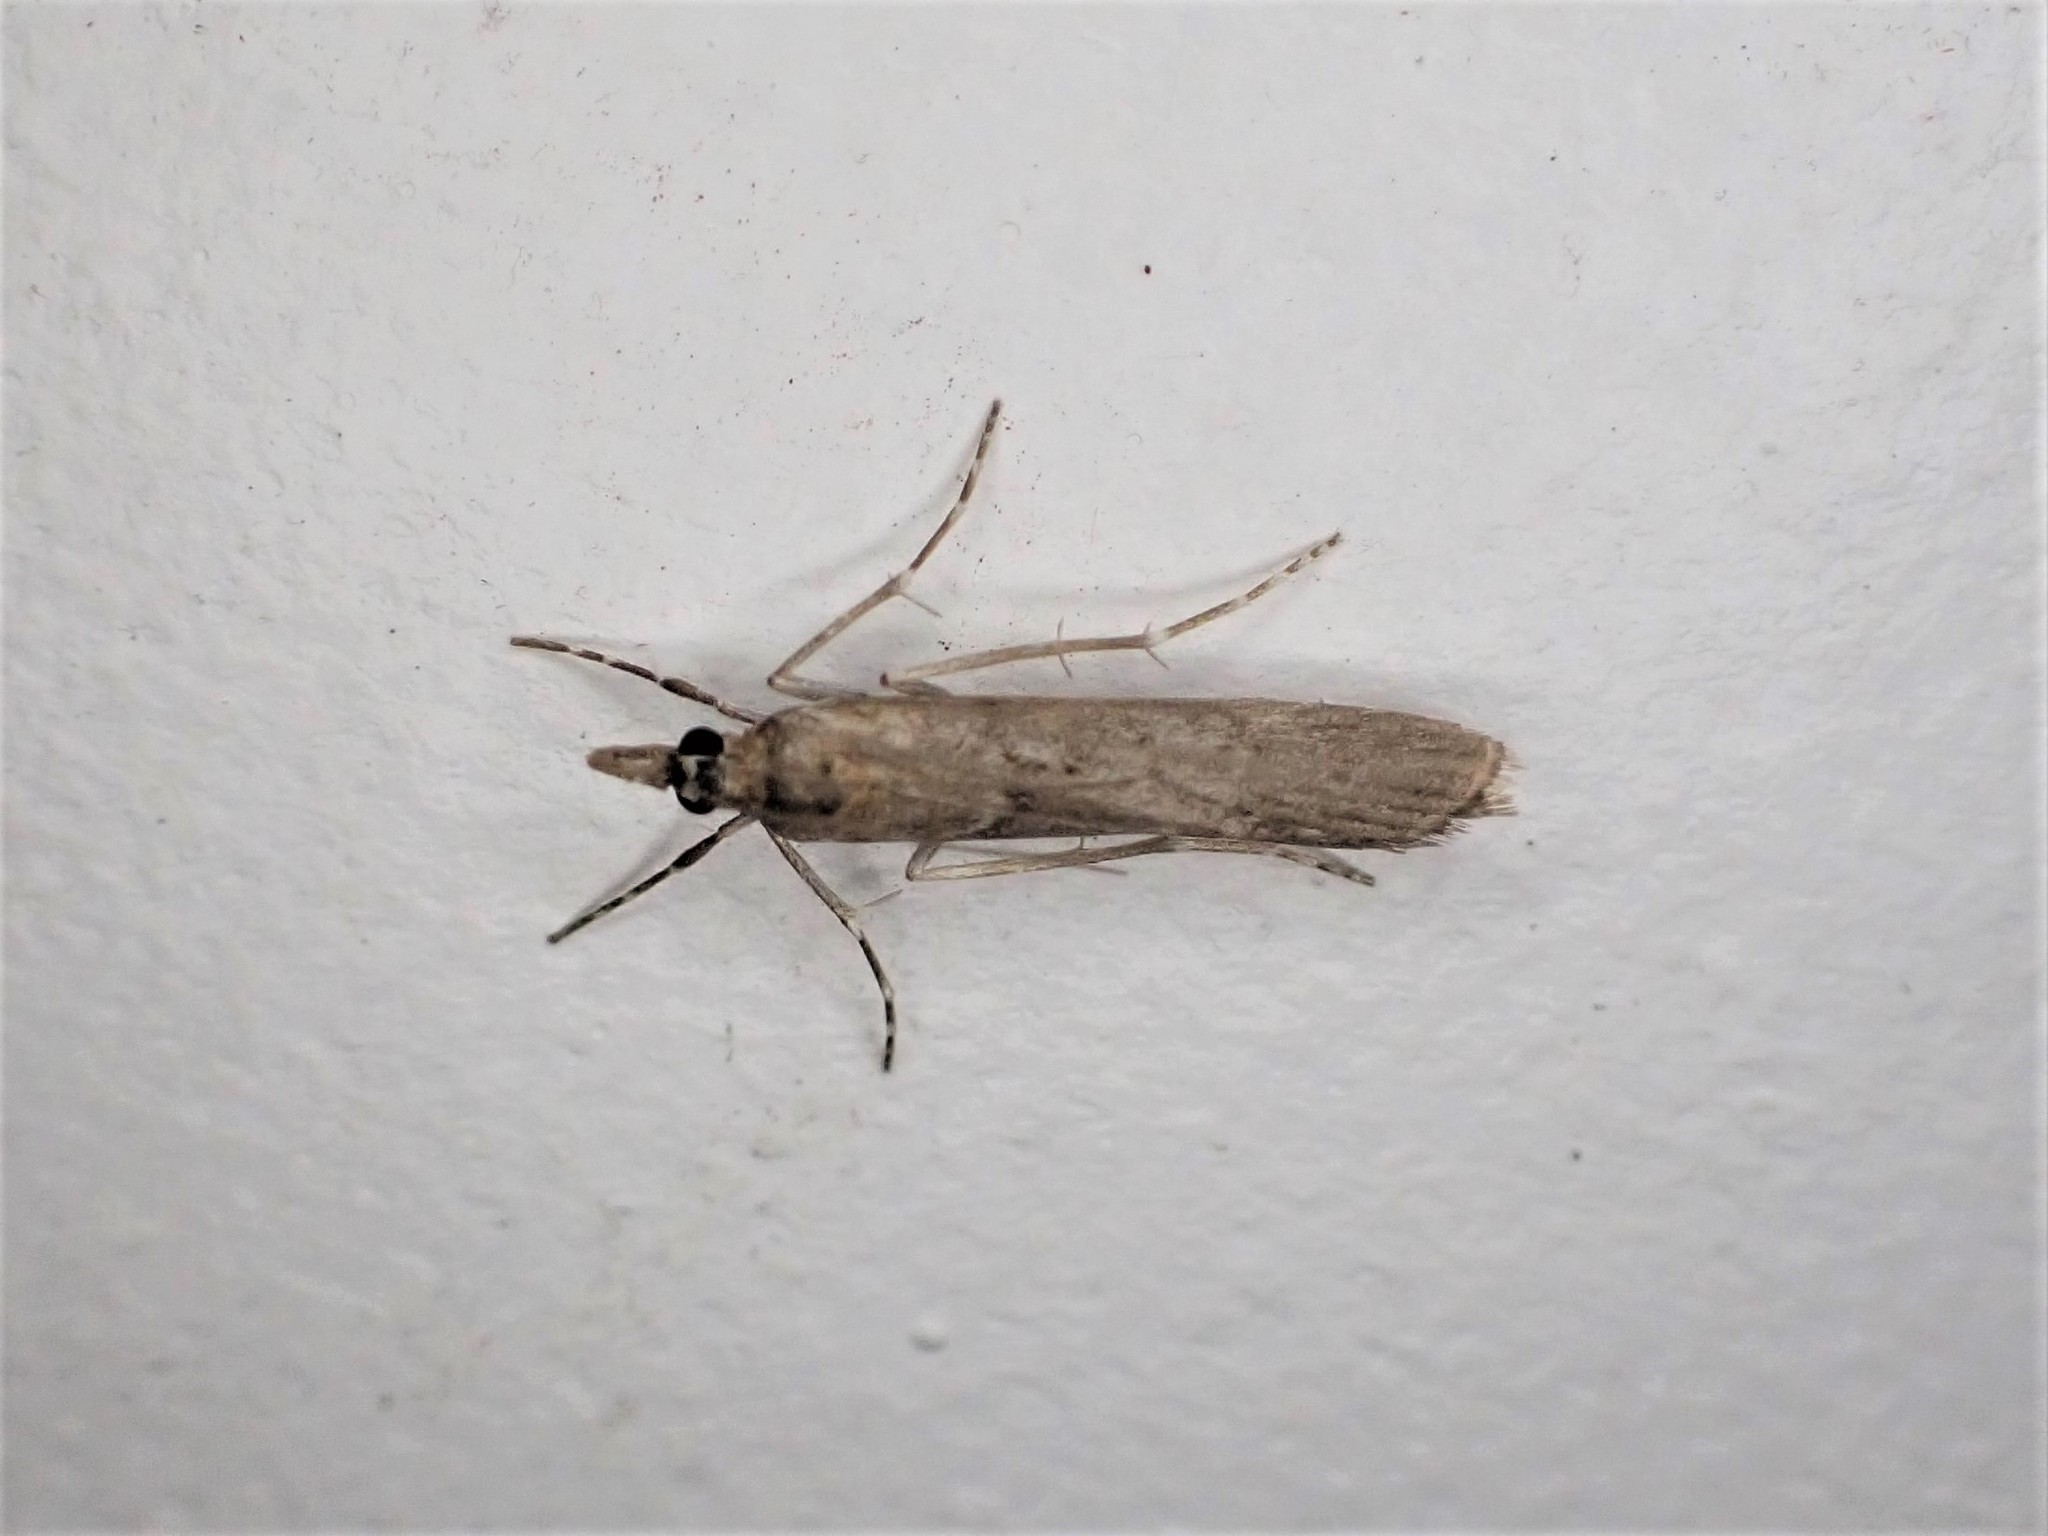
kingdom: Animalia
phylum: Arthropoda
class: Insecta
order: Lepidoptera
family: Crambidae
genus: Eudonia
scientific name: Eudonia leptalea
